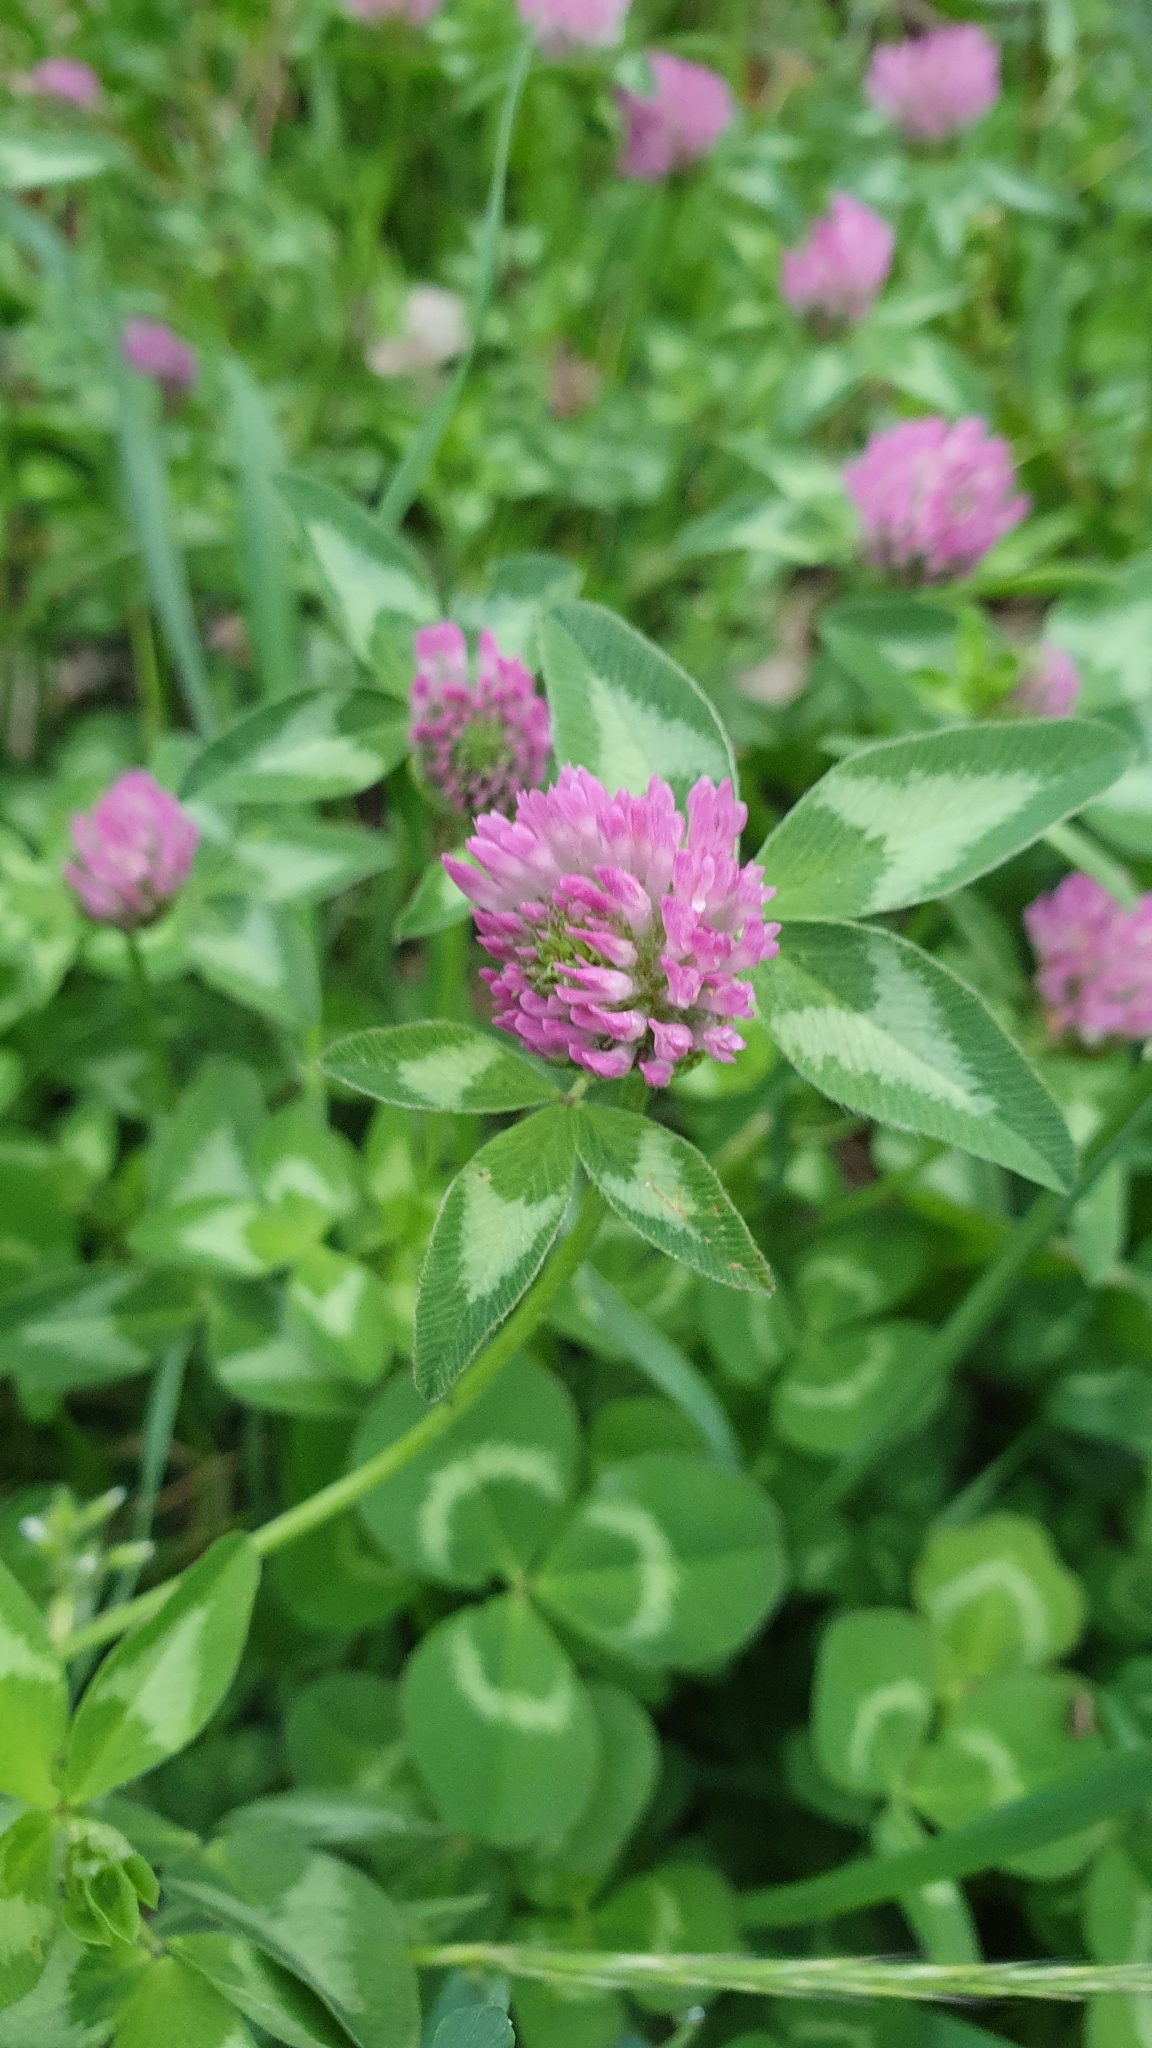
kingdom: Plantae
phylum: Tracheophyta
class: Magnoliopsida
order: Fabales
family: Fabaceae
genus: Trifolium
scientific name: Trifolium pratense
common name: Red clover
